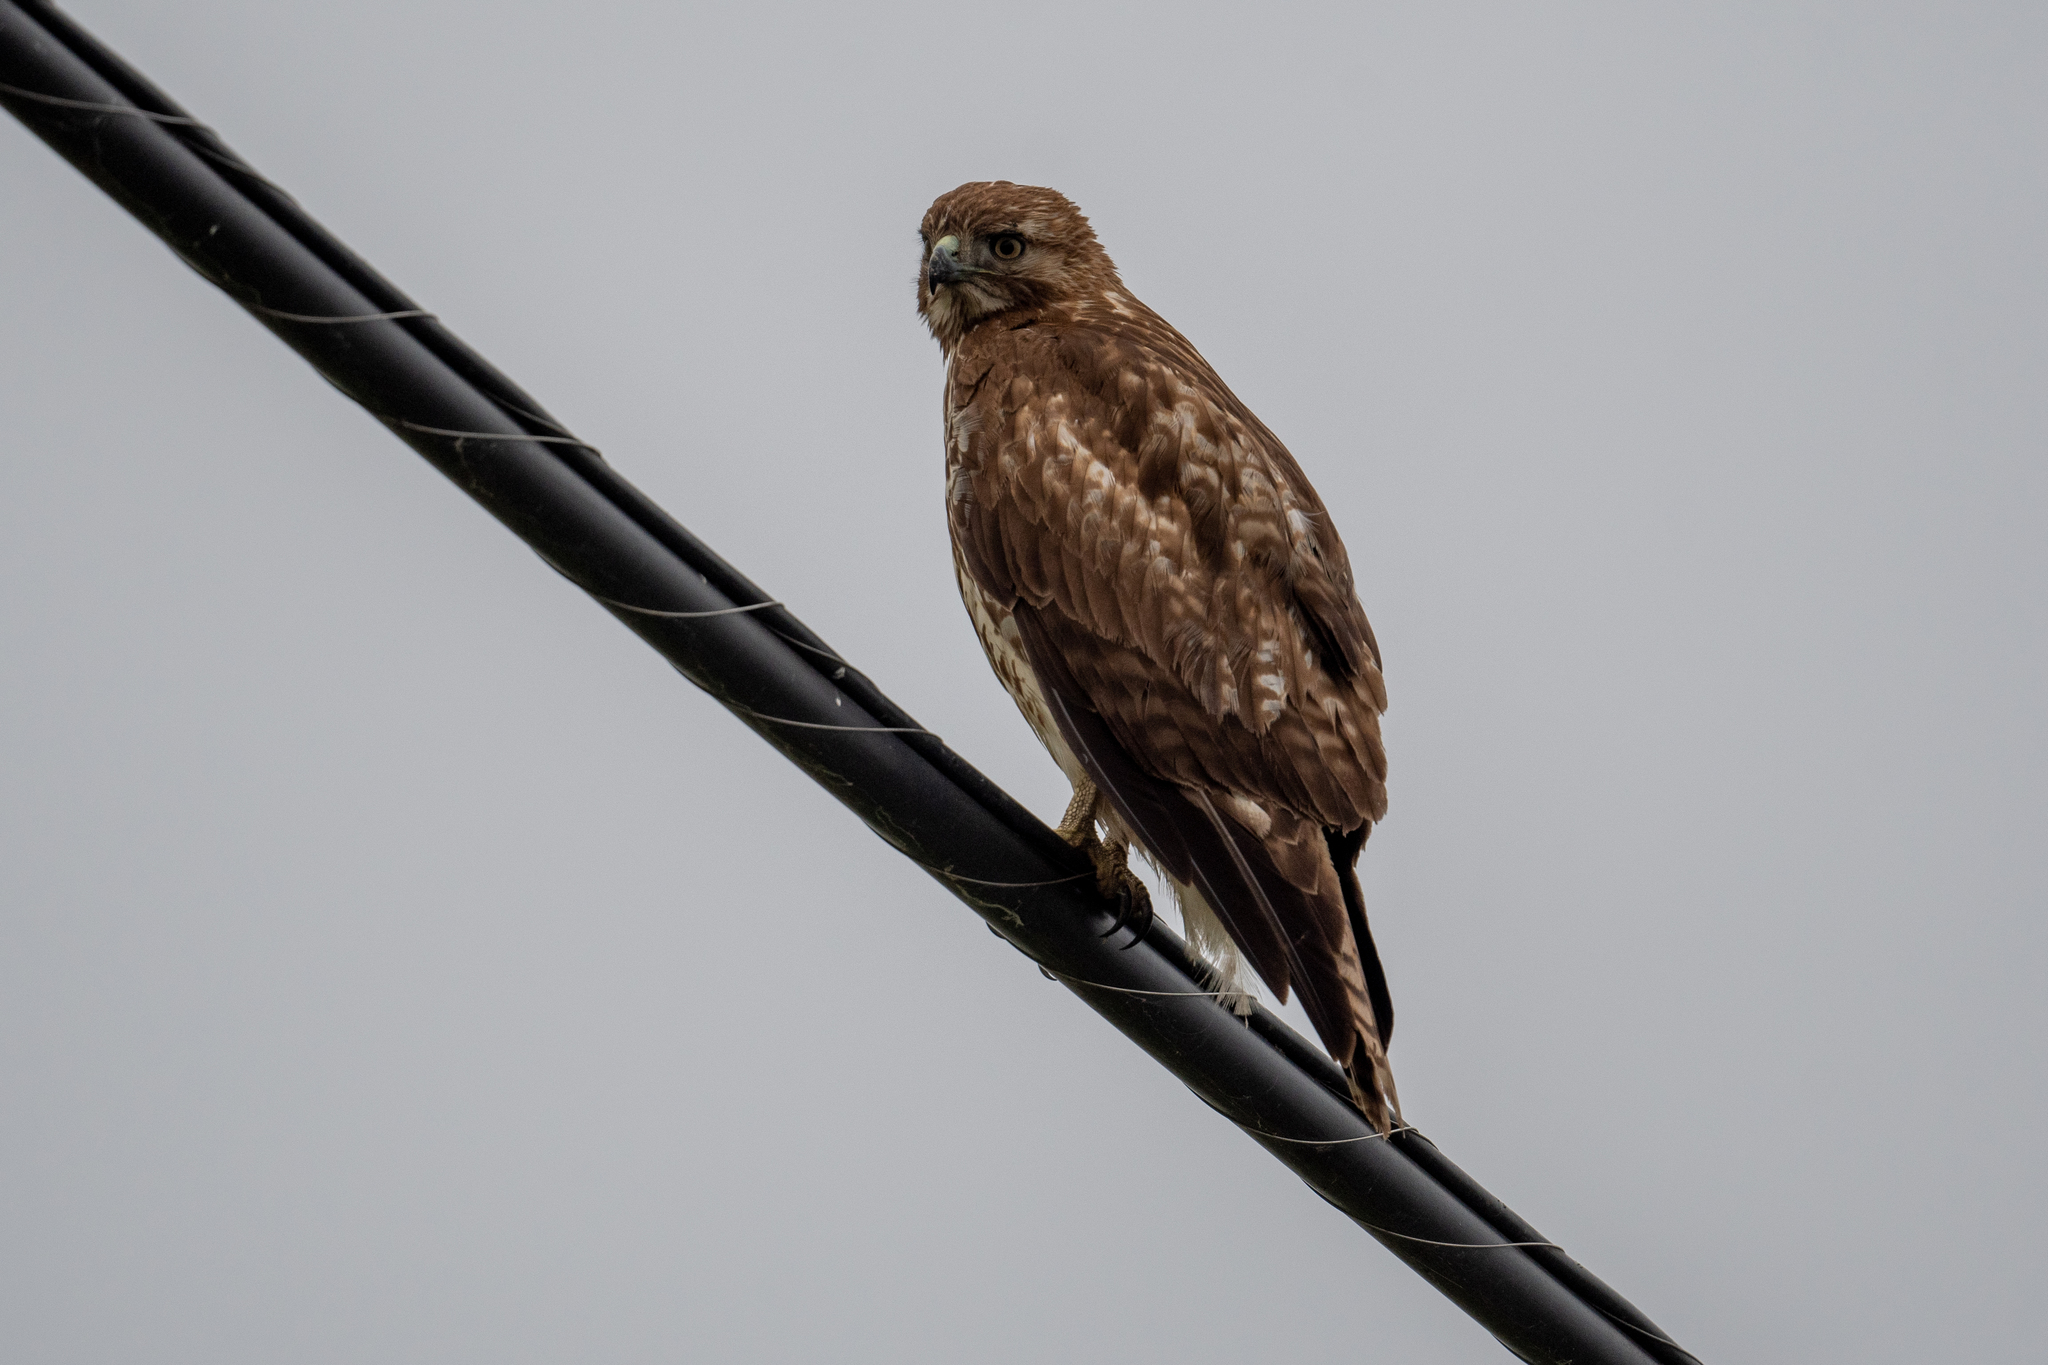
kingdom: Animalia
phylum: Chordata
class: Aves
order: Accipitriformes
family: Accipitridae
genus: Buteo
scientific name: Buteo jamaicensis
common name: Red-tailed hawk
